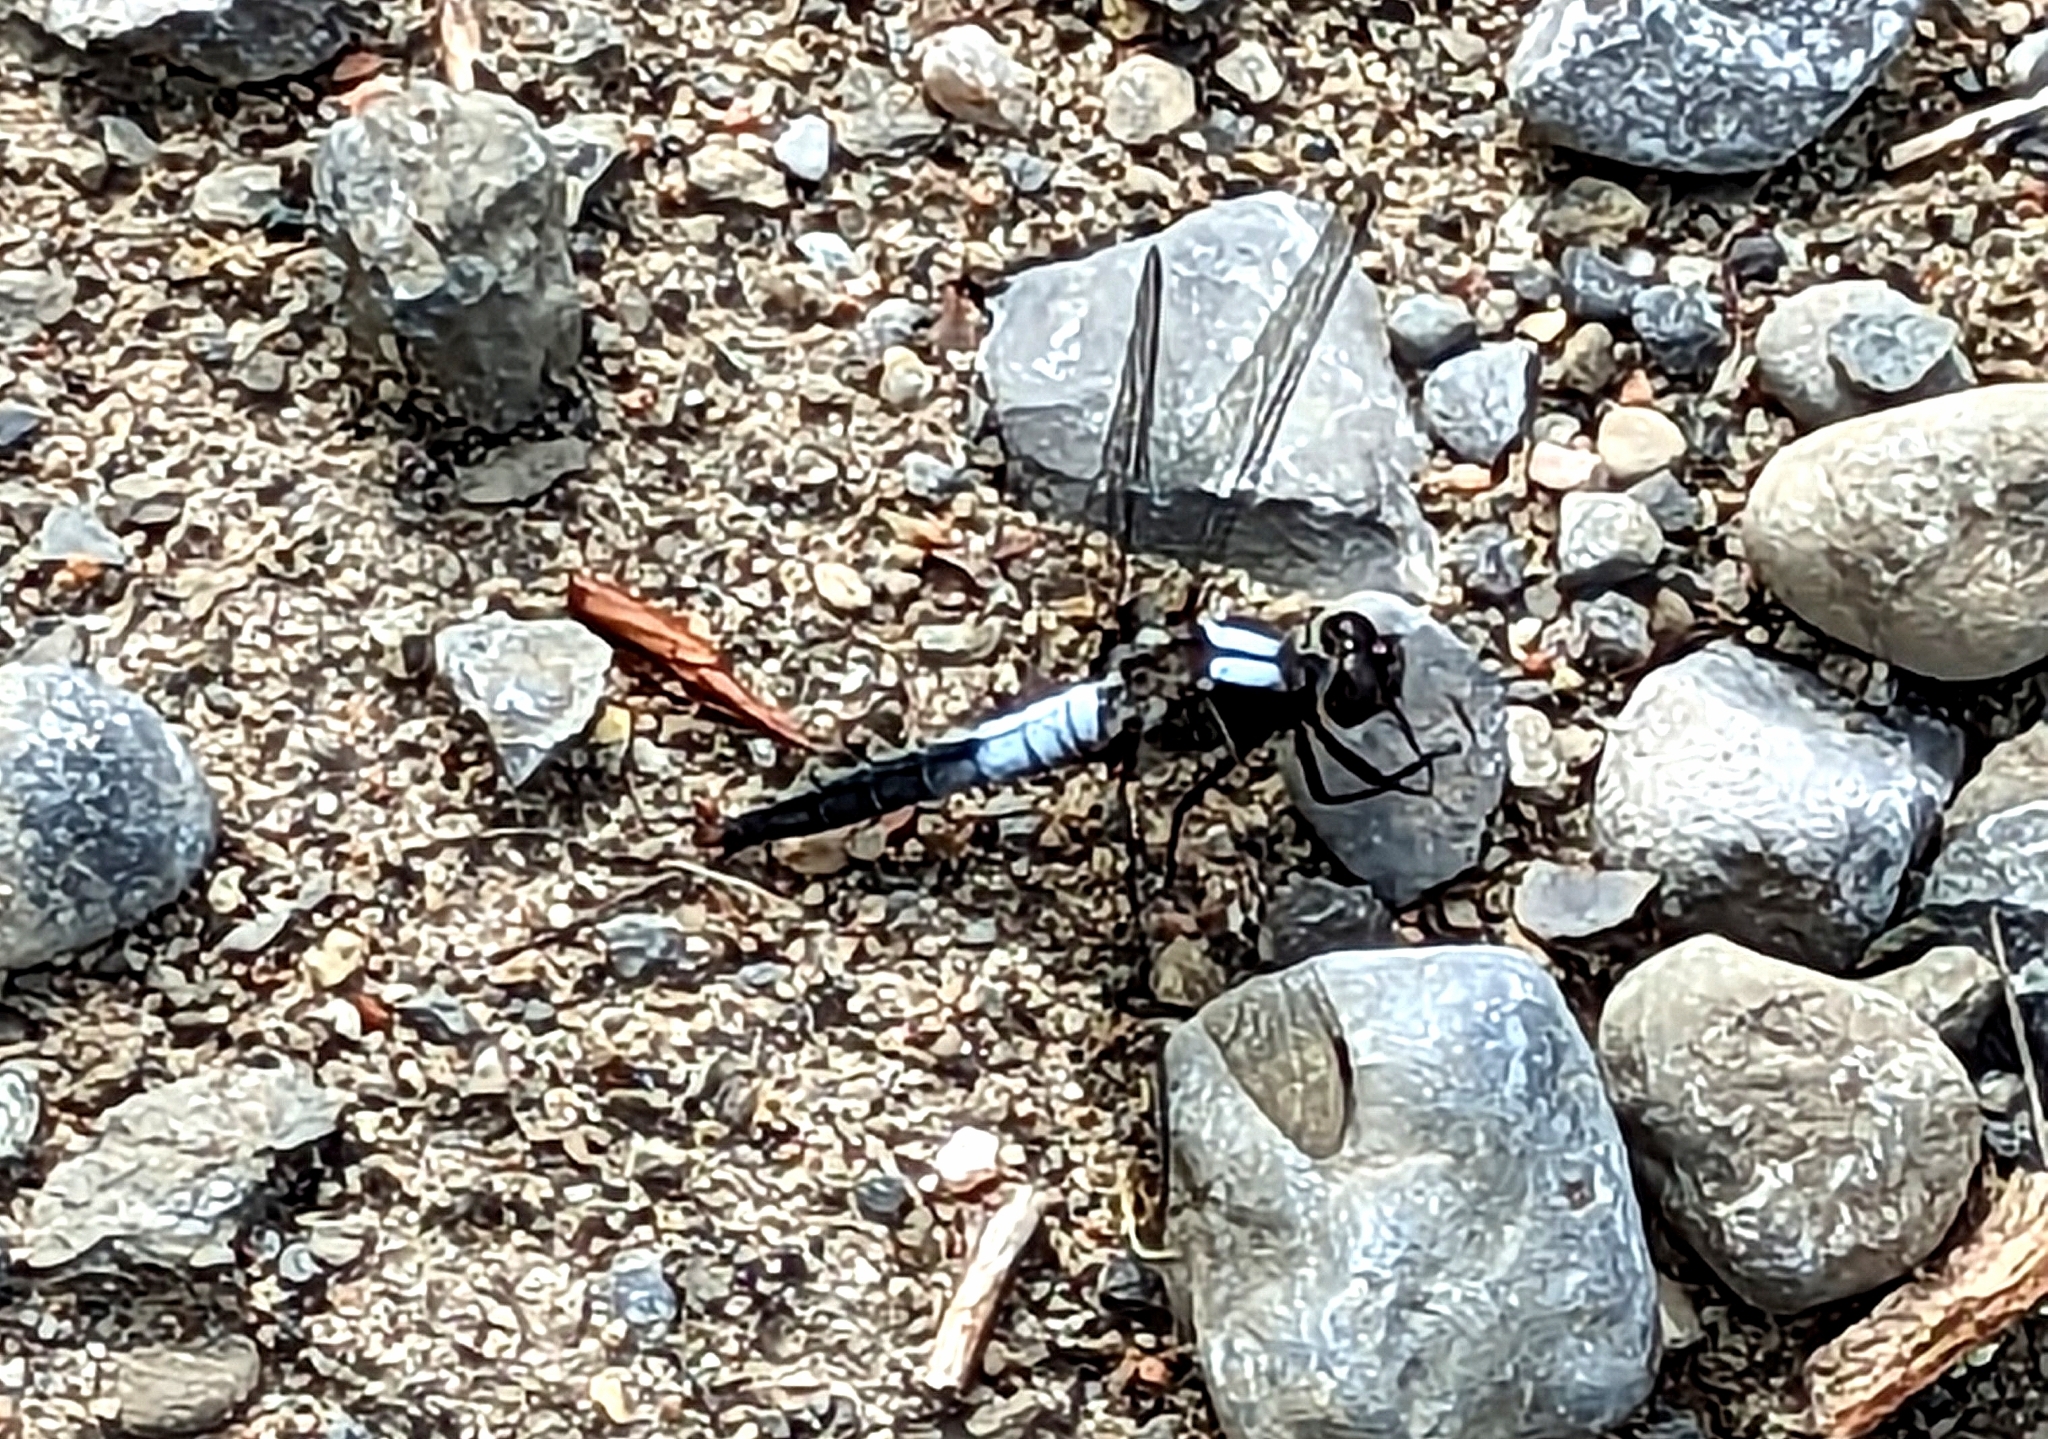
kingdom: Animalia
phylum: Arthropoda
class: Insecta
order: Odonata
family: Libellulidae
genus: Ladona
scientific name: Ladona julia
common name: Chalk-fronted corporal
